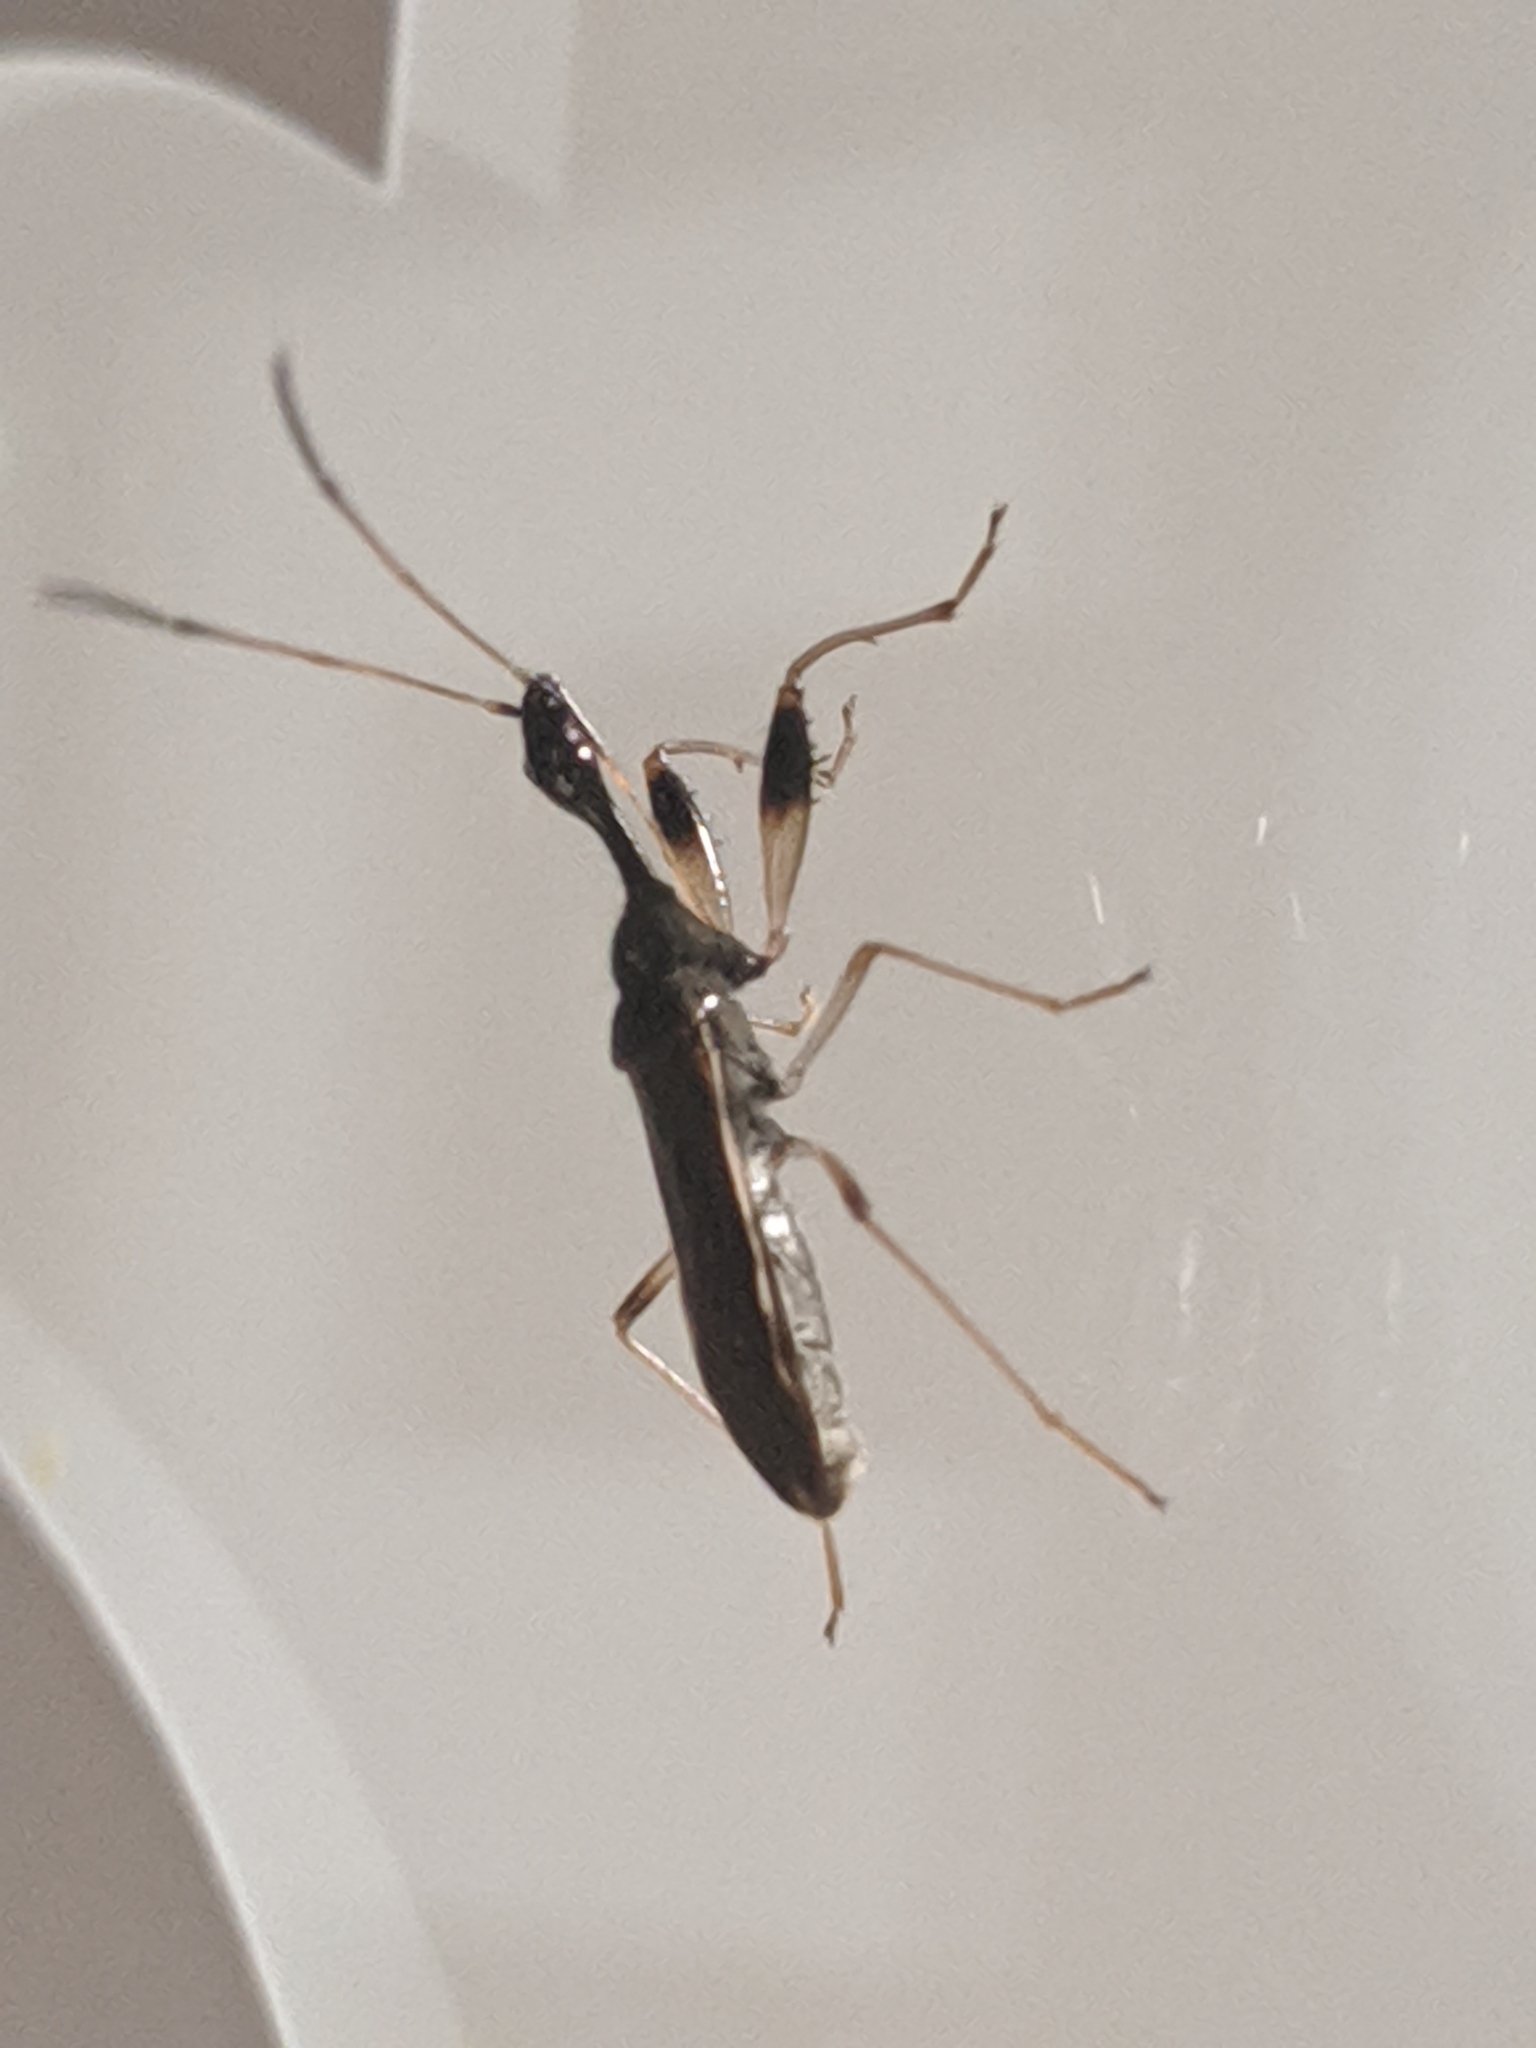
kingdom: Animalia
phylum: Arthropoda
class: Insecta
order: Hemiptera
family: Rhyparochromidae
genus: Myodocha
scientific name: Myodocha serripes
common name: Long-necked seed bug
